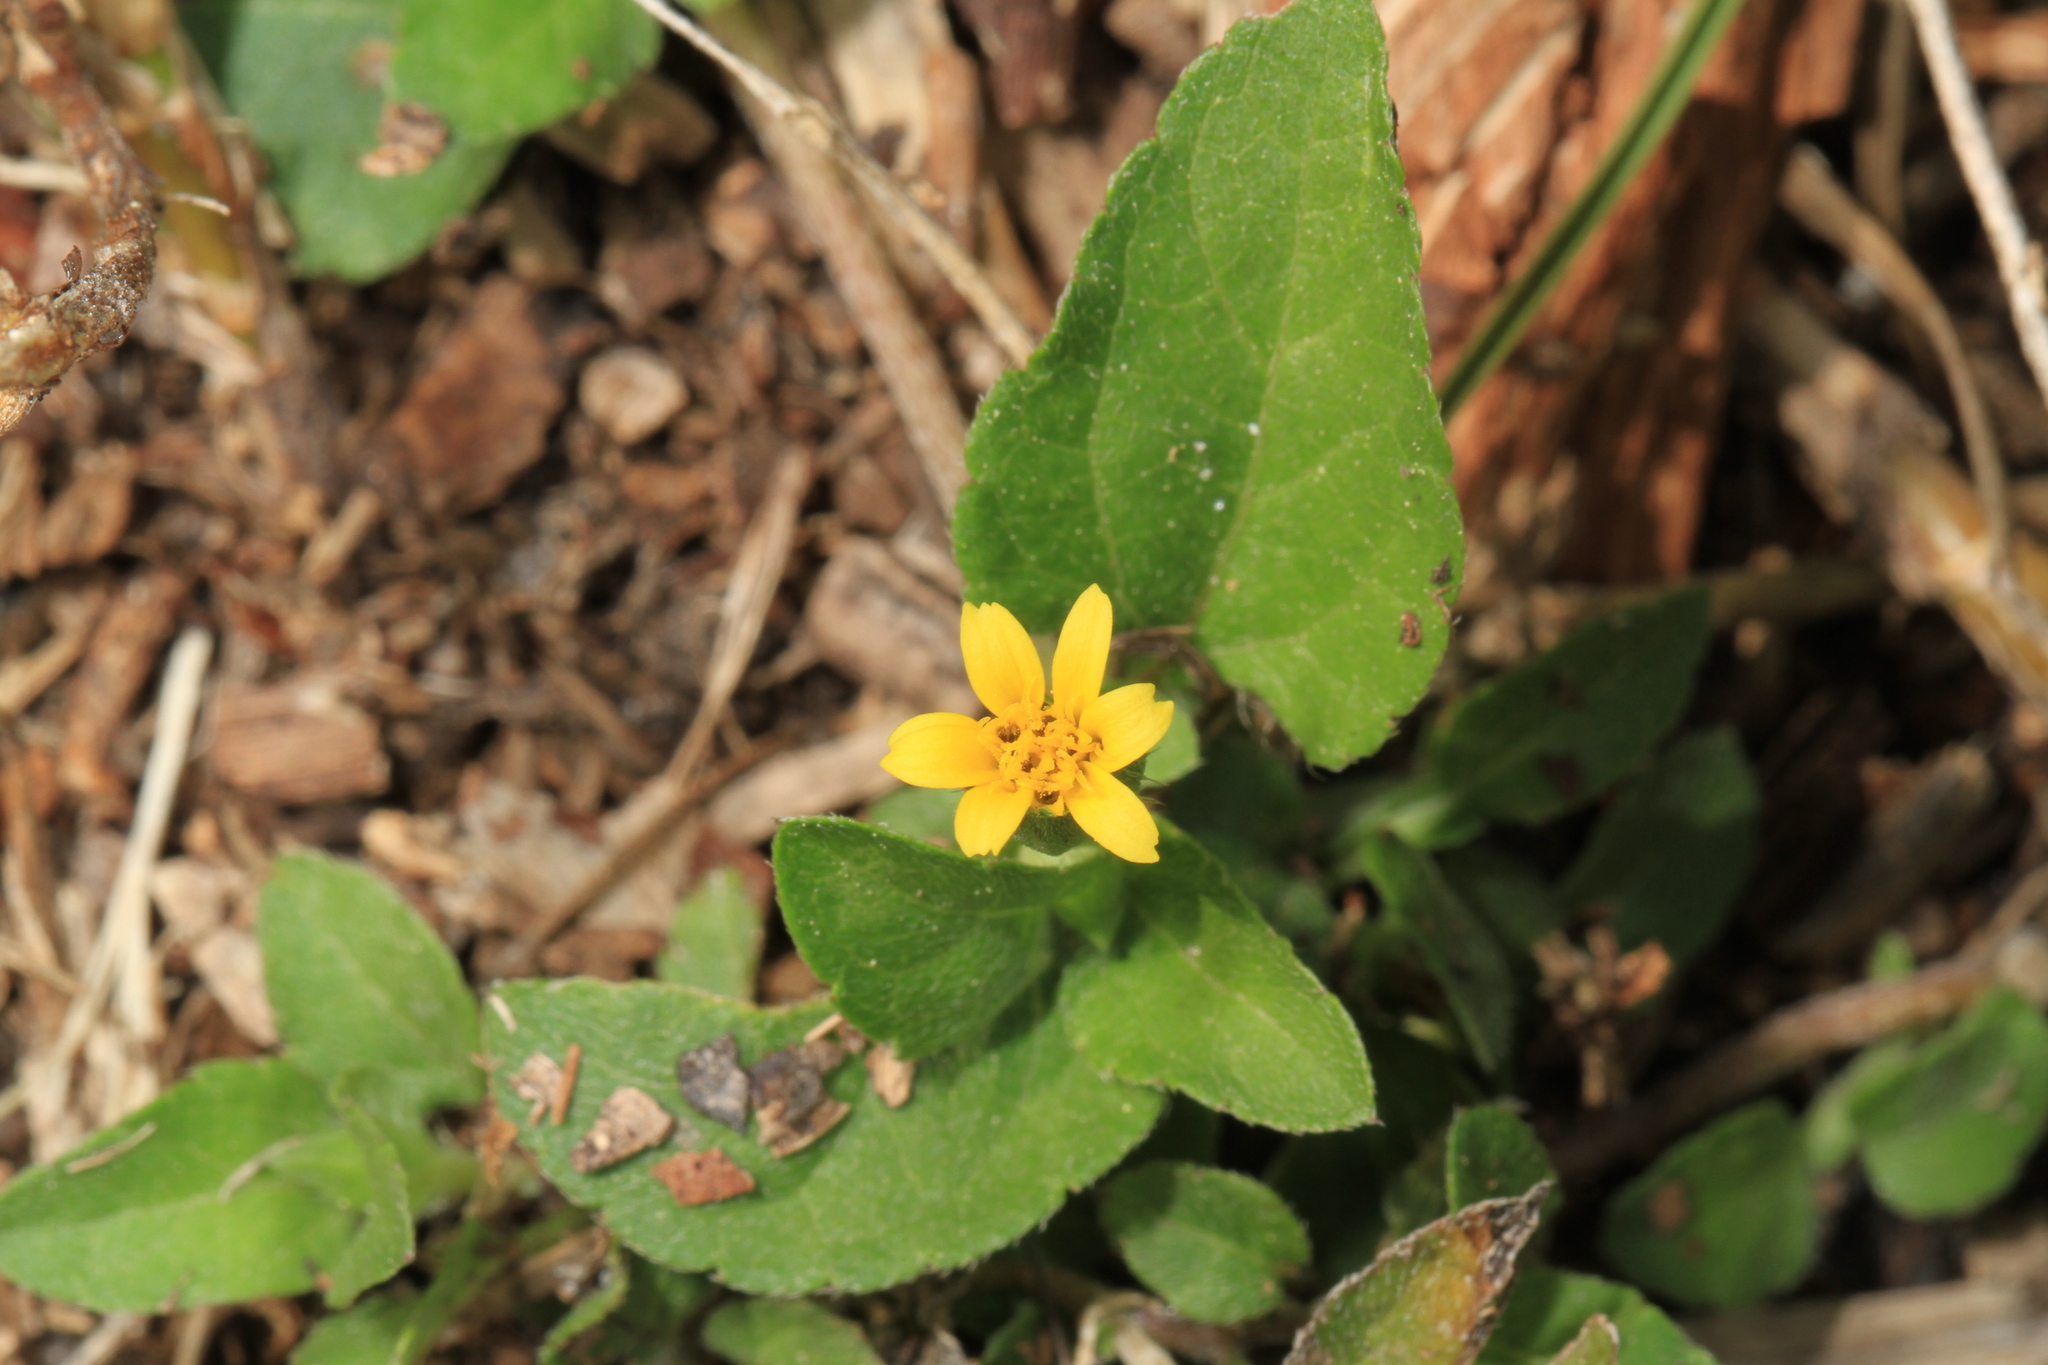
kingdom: Plantae
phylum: Tracheophyta
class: Magnoliopsida
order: Asterales
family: Asteraceae
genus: Calyptocarpus
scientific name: Calyptocarpus vialis
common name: Straggler daisy
